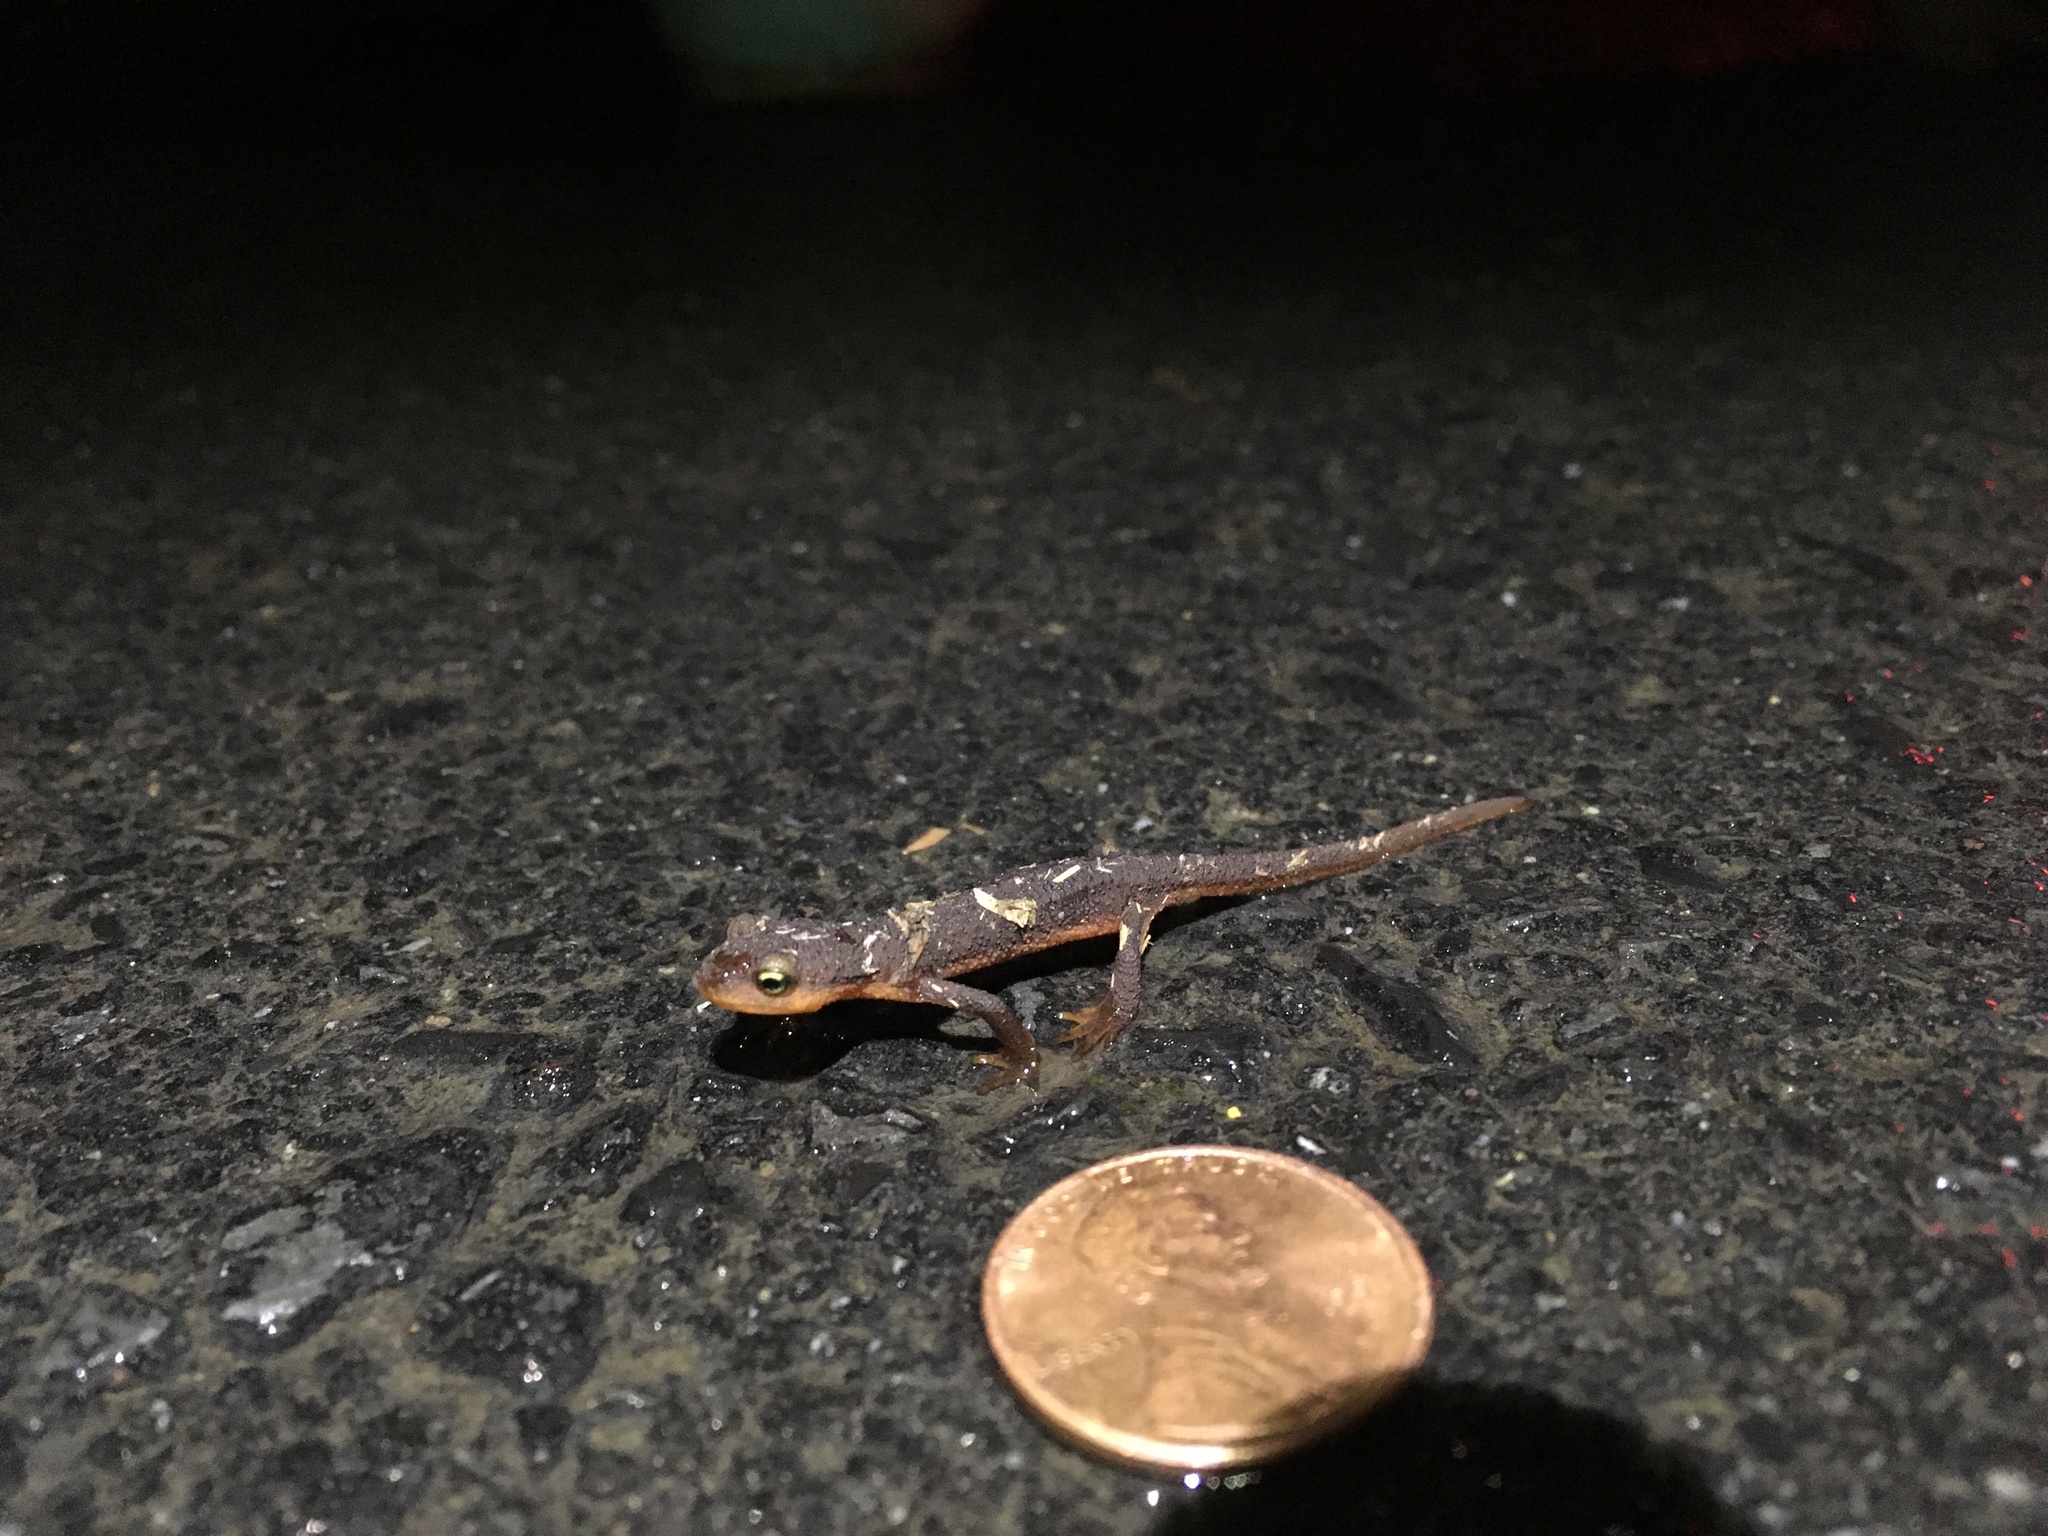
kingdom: Animalia
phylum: Chordata
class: Amphibia
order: Caudata
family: Salamandridae
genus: Taricha
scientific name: Taricha torosa
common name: California newt
